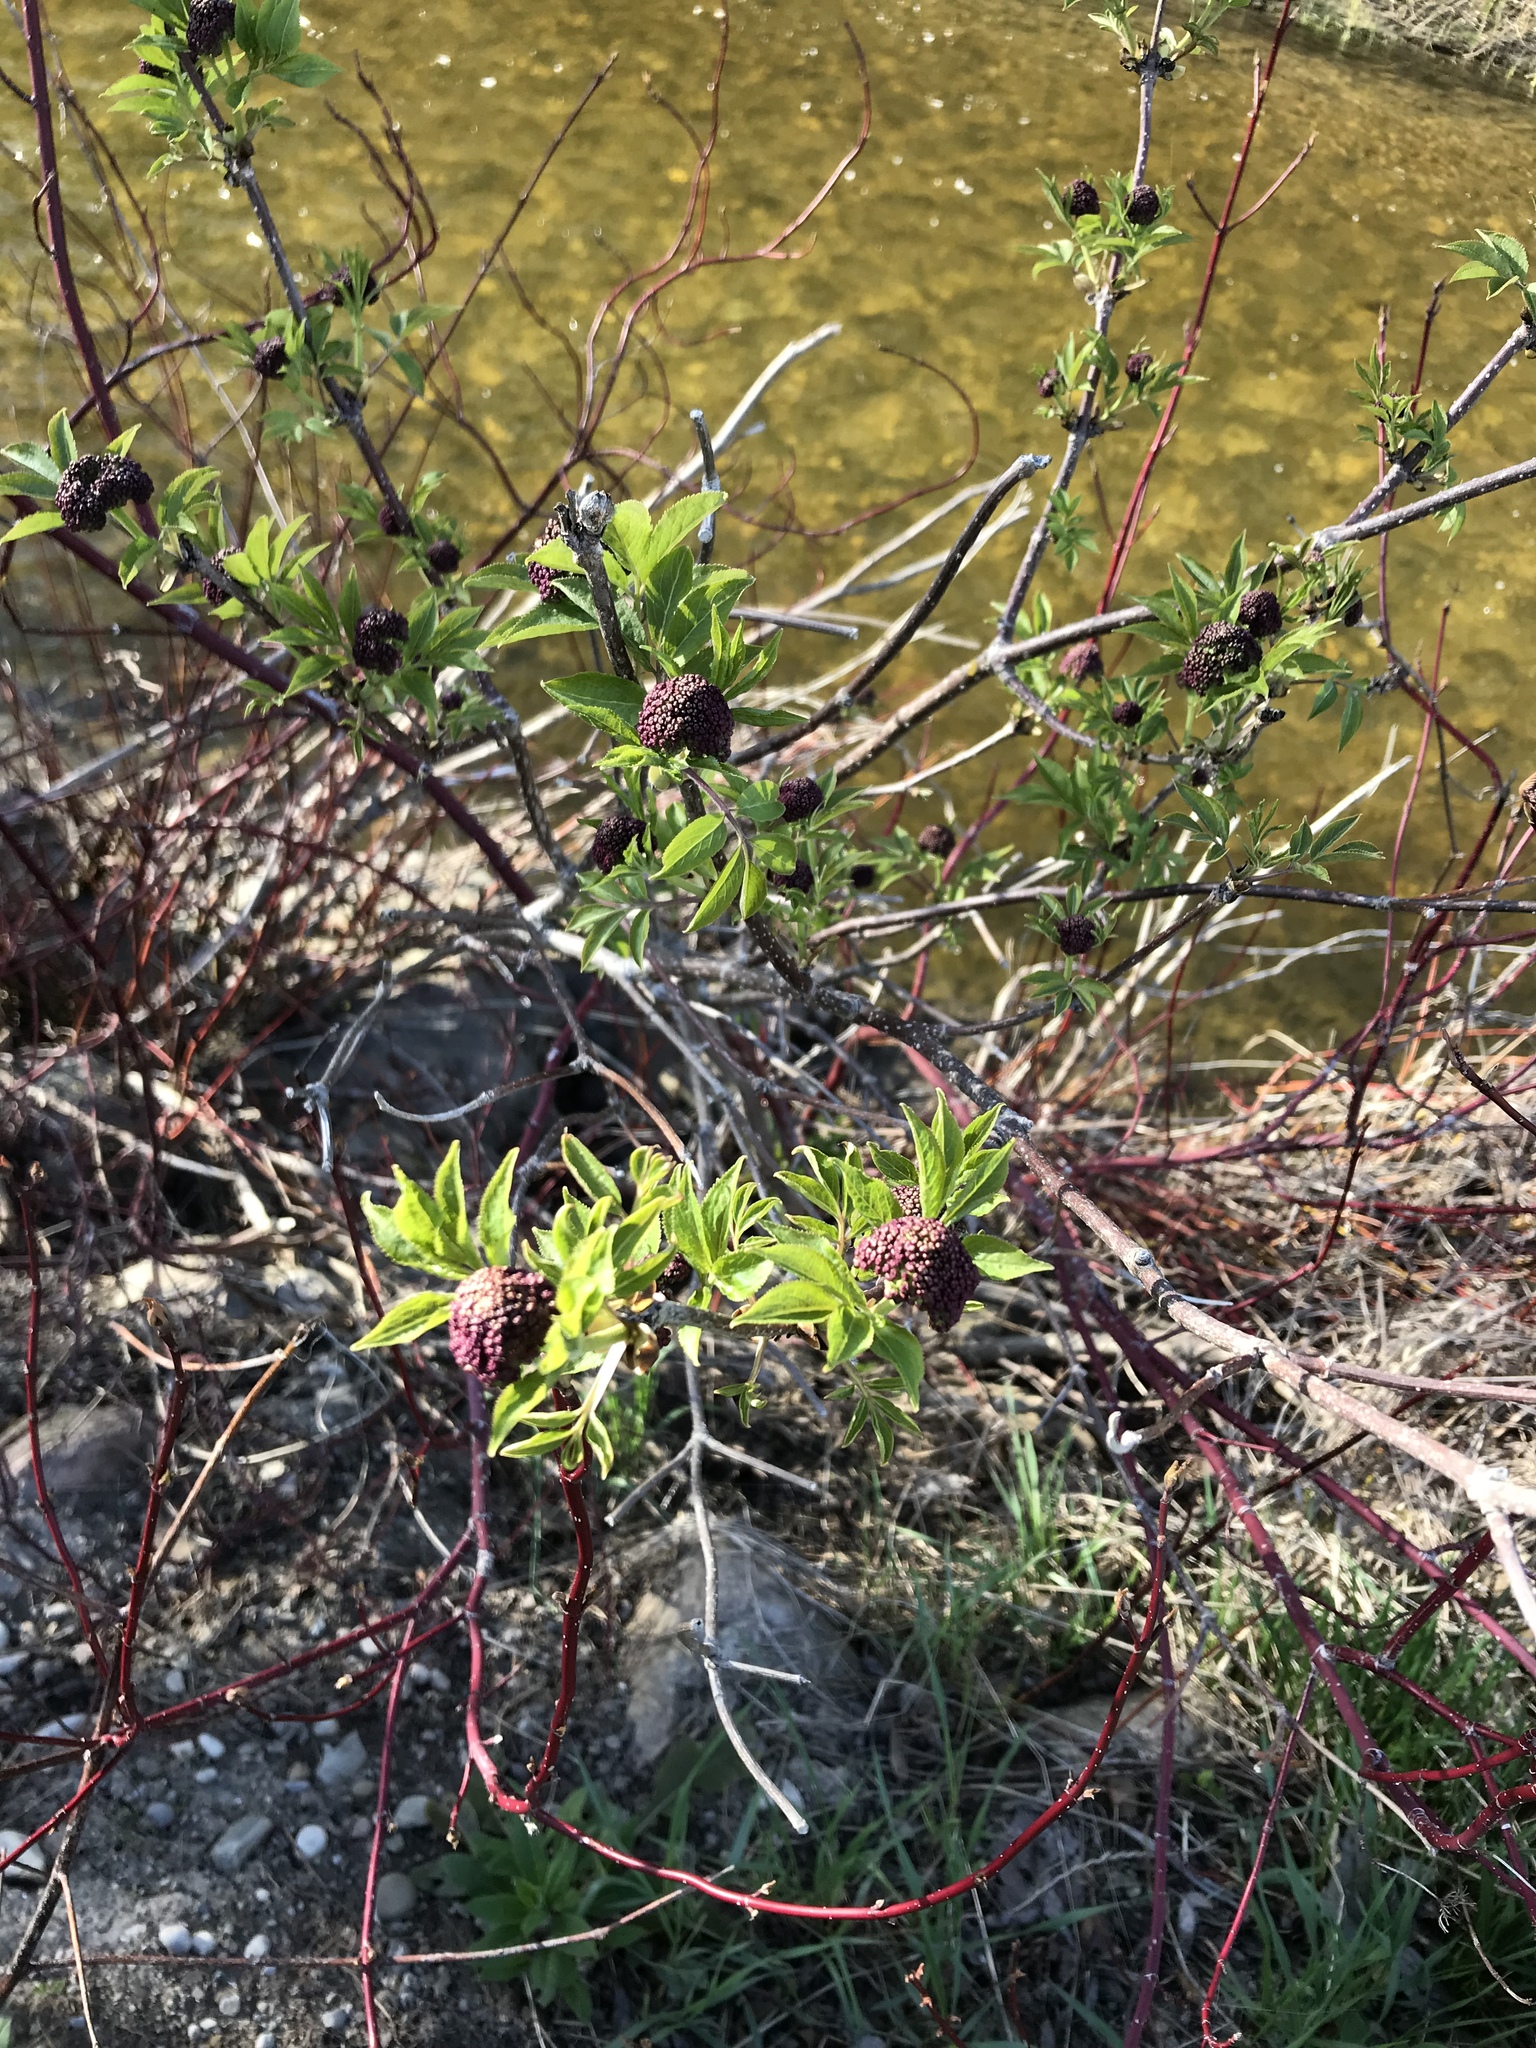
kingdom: Plantae
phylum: Tracheophyta
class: Magnoliopsida
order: Dipsacales
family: Viburnaceae
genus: Sambucus
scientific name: Sambucus racemosa
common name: Red-berried elder
